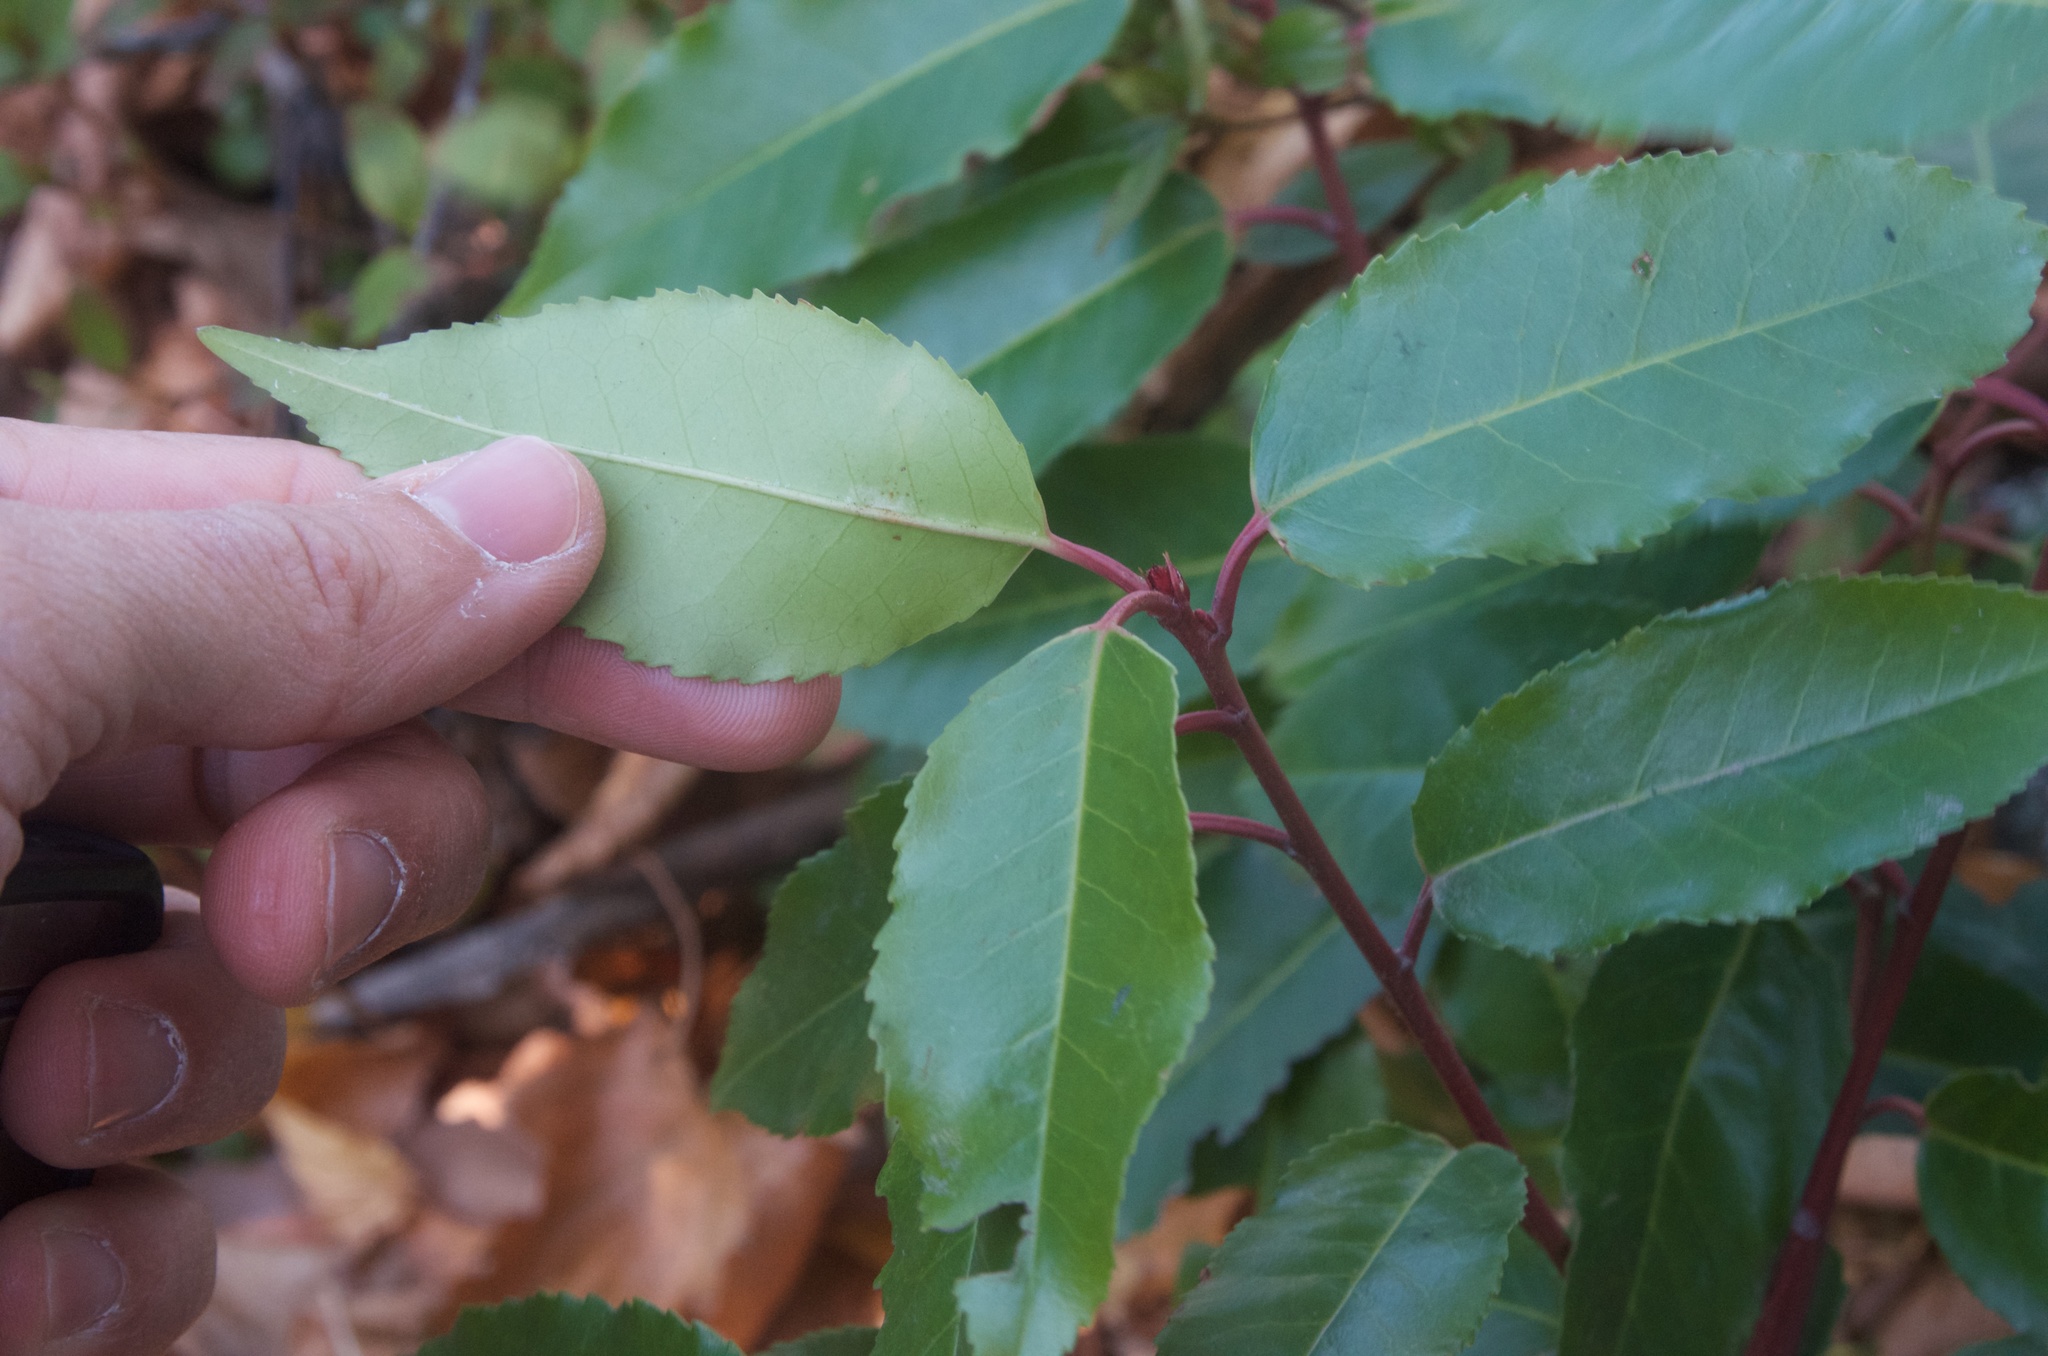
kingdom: Plantae
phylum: Tracheophyta
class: Magnoliopsida
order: Rosales
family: Rosaceae
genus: Prunus
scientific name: Prunus lusitanica
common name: Portugal laurel
